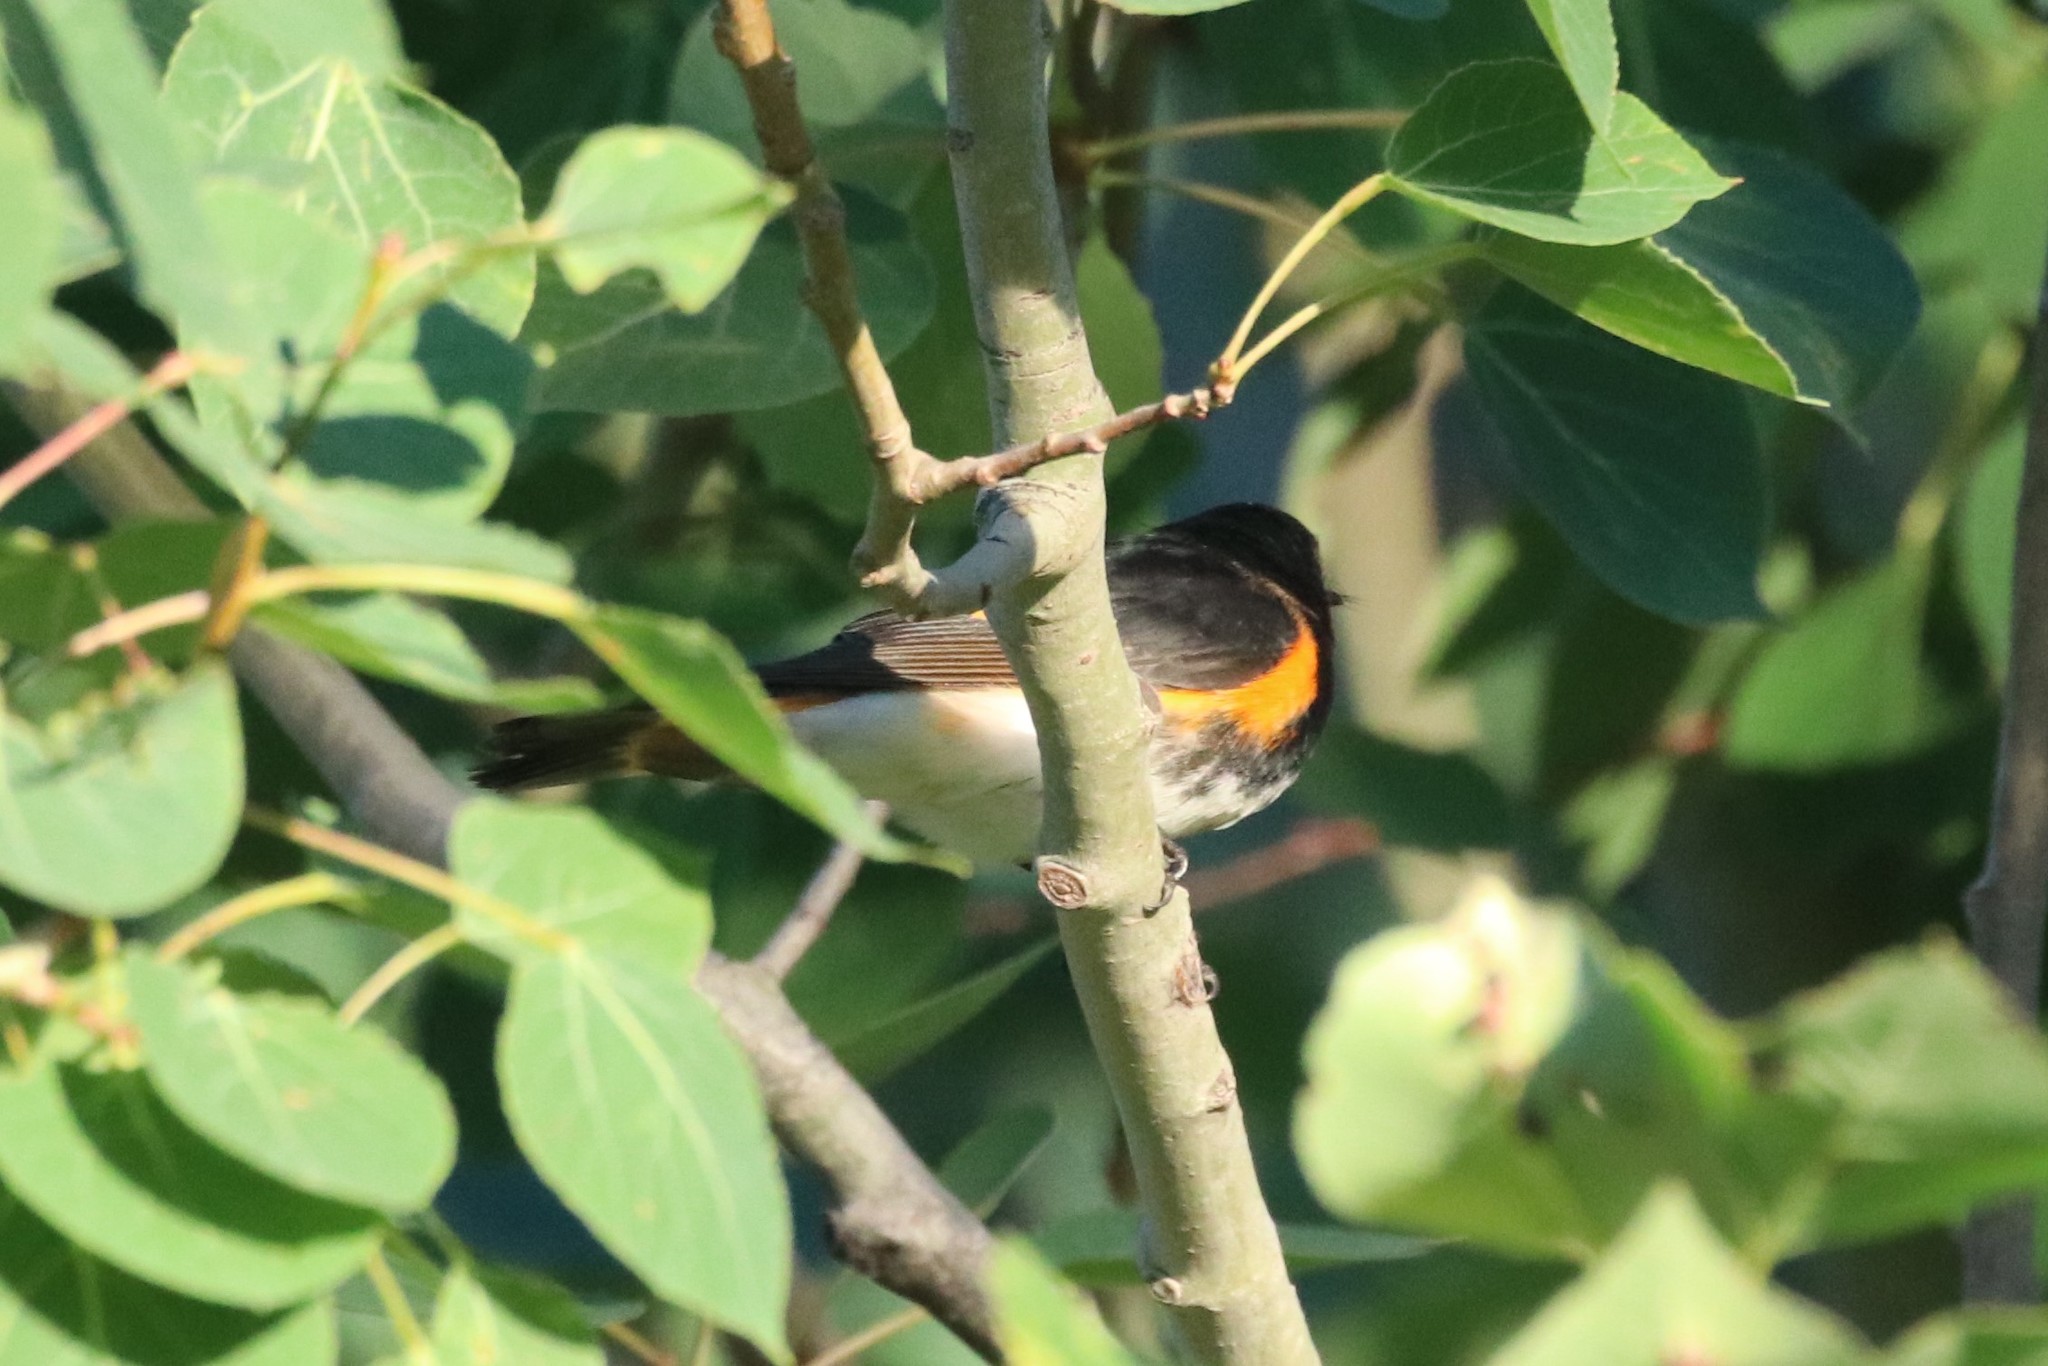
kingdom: Animalia
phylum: Chordata
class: Aves
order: Passeriformes
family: Parulidae
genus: Setophaga
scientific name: Setophaga ruticilla
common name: American redstart
